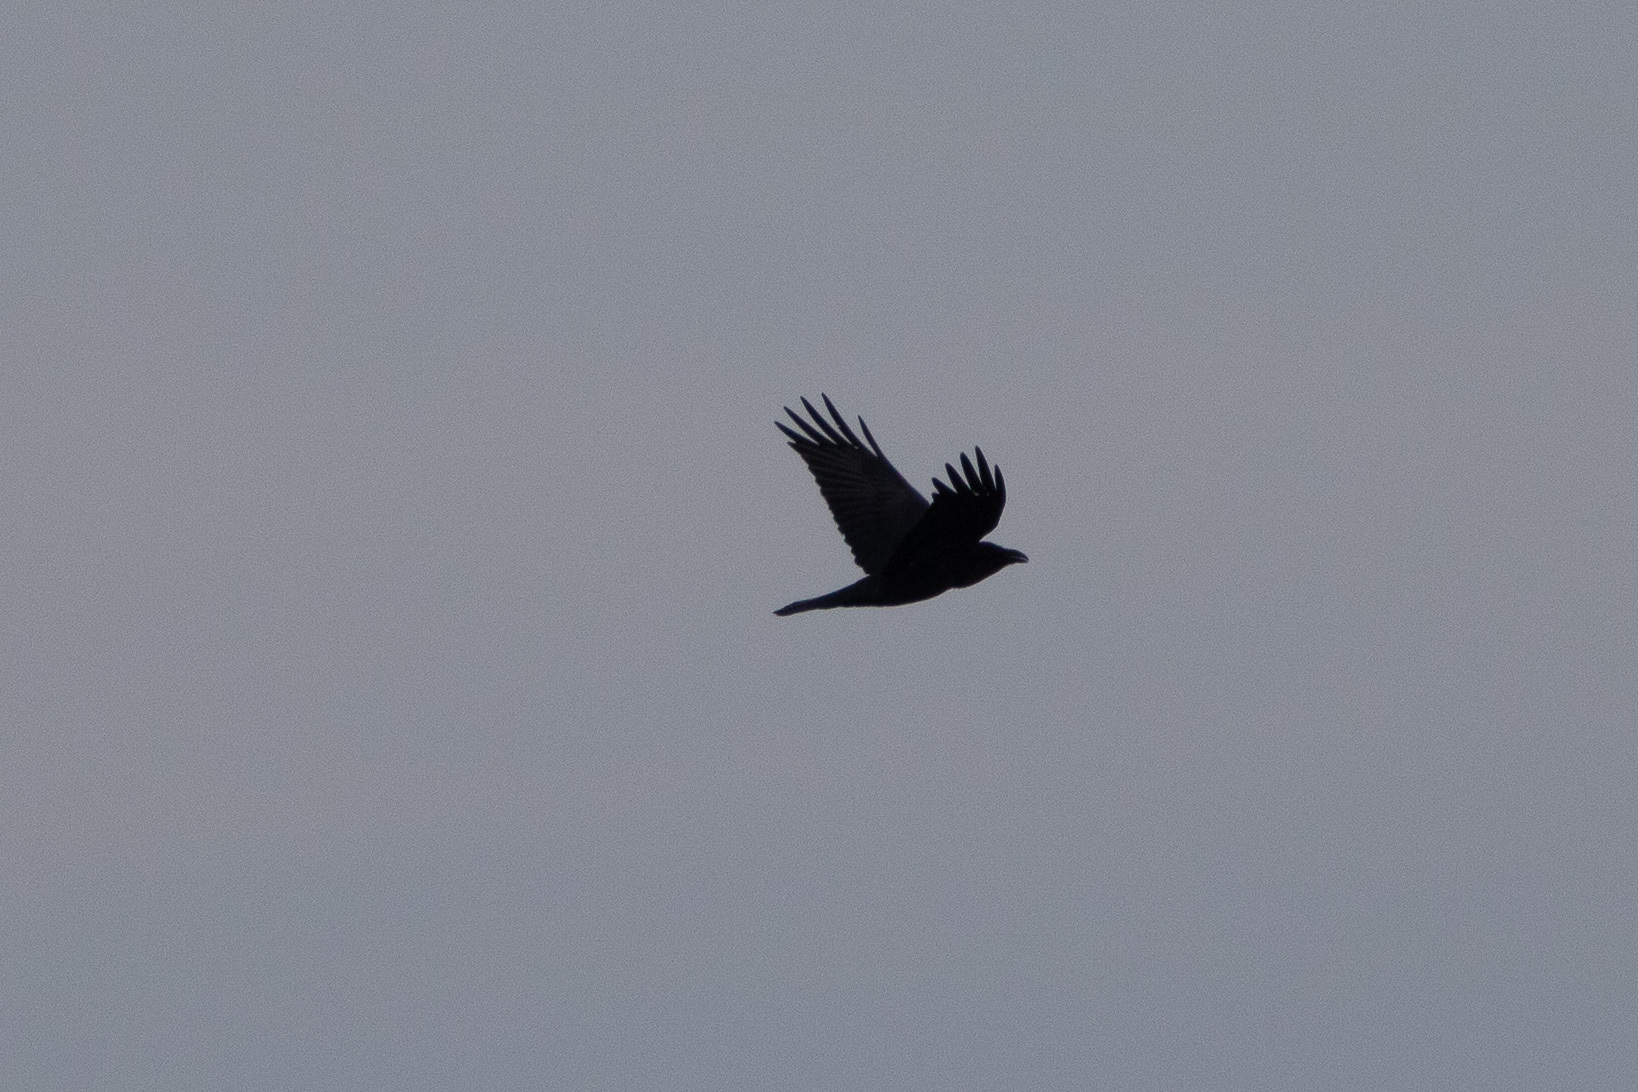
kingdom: Animalia
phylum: Chordata
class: Aves
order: Passeriformes
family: Corvidae
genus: Corvus
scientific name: Corvus corax
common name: Common raven
